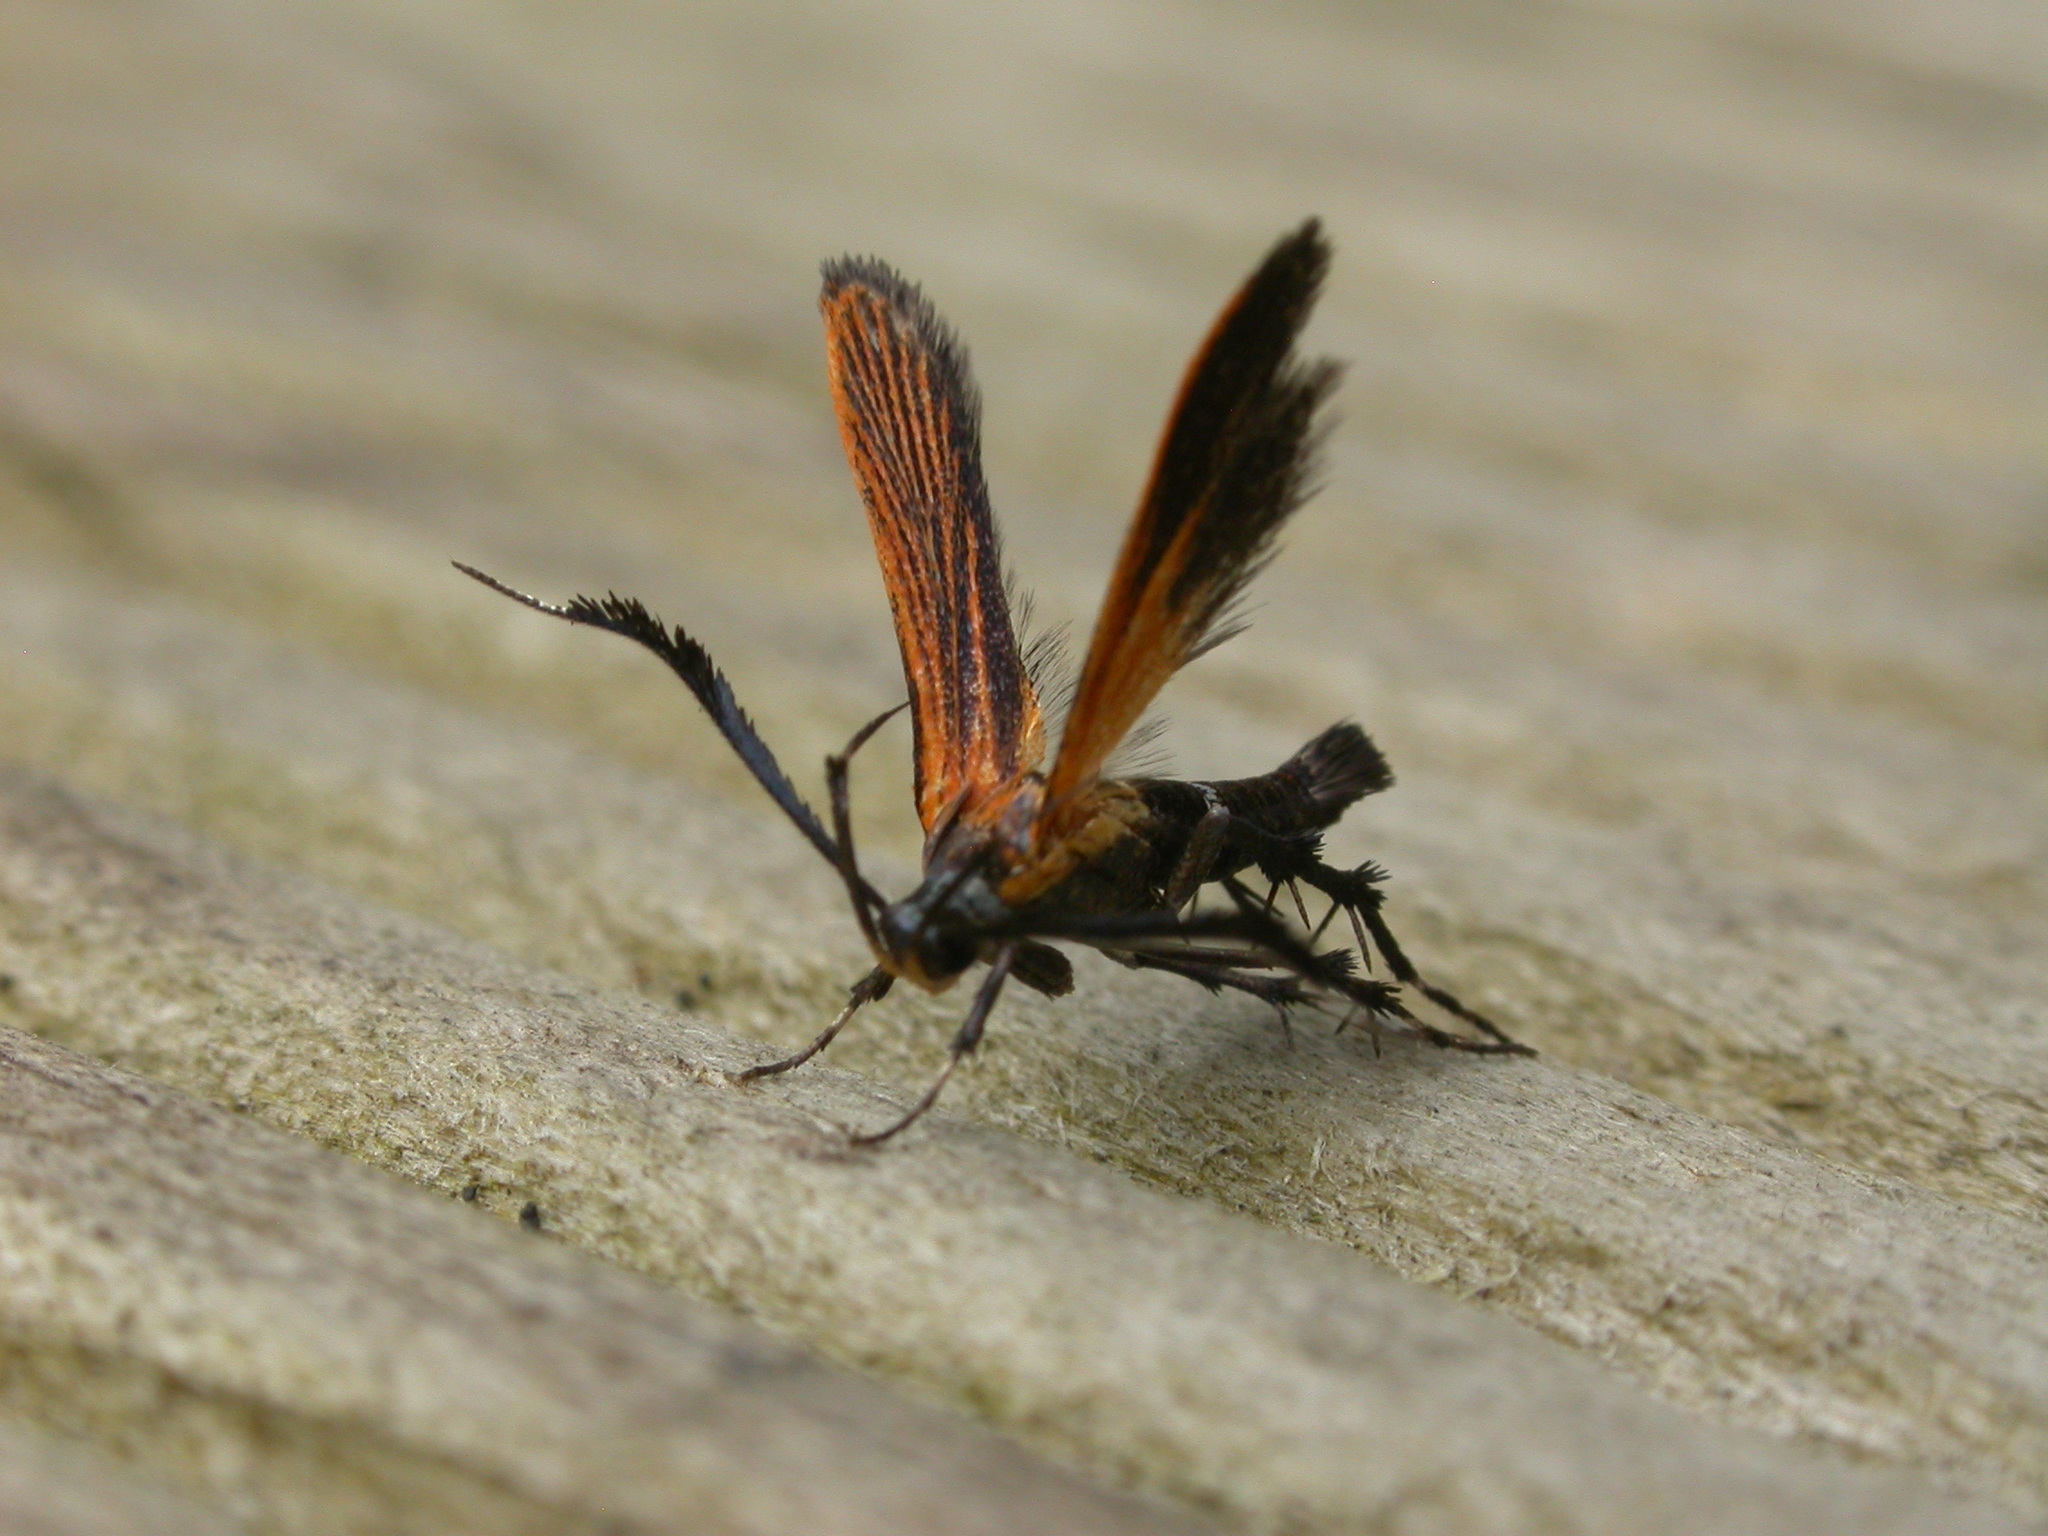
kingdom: Animalia
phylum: Arthropoda
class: Insecta
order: Lepidoptera
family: Stathmopodidae
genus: Snellenia
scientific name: Snellenia lineata
